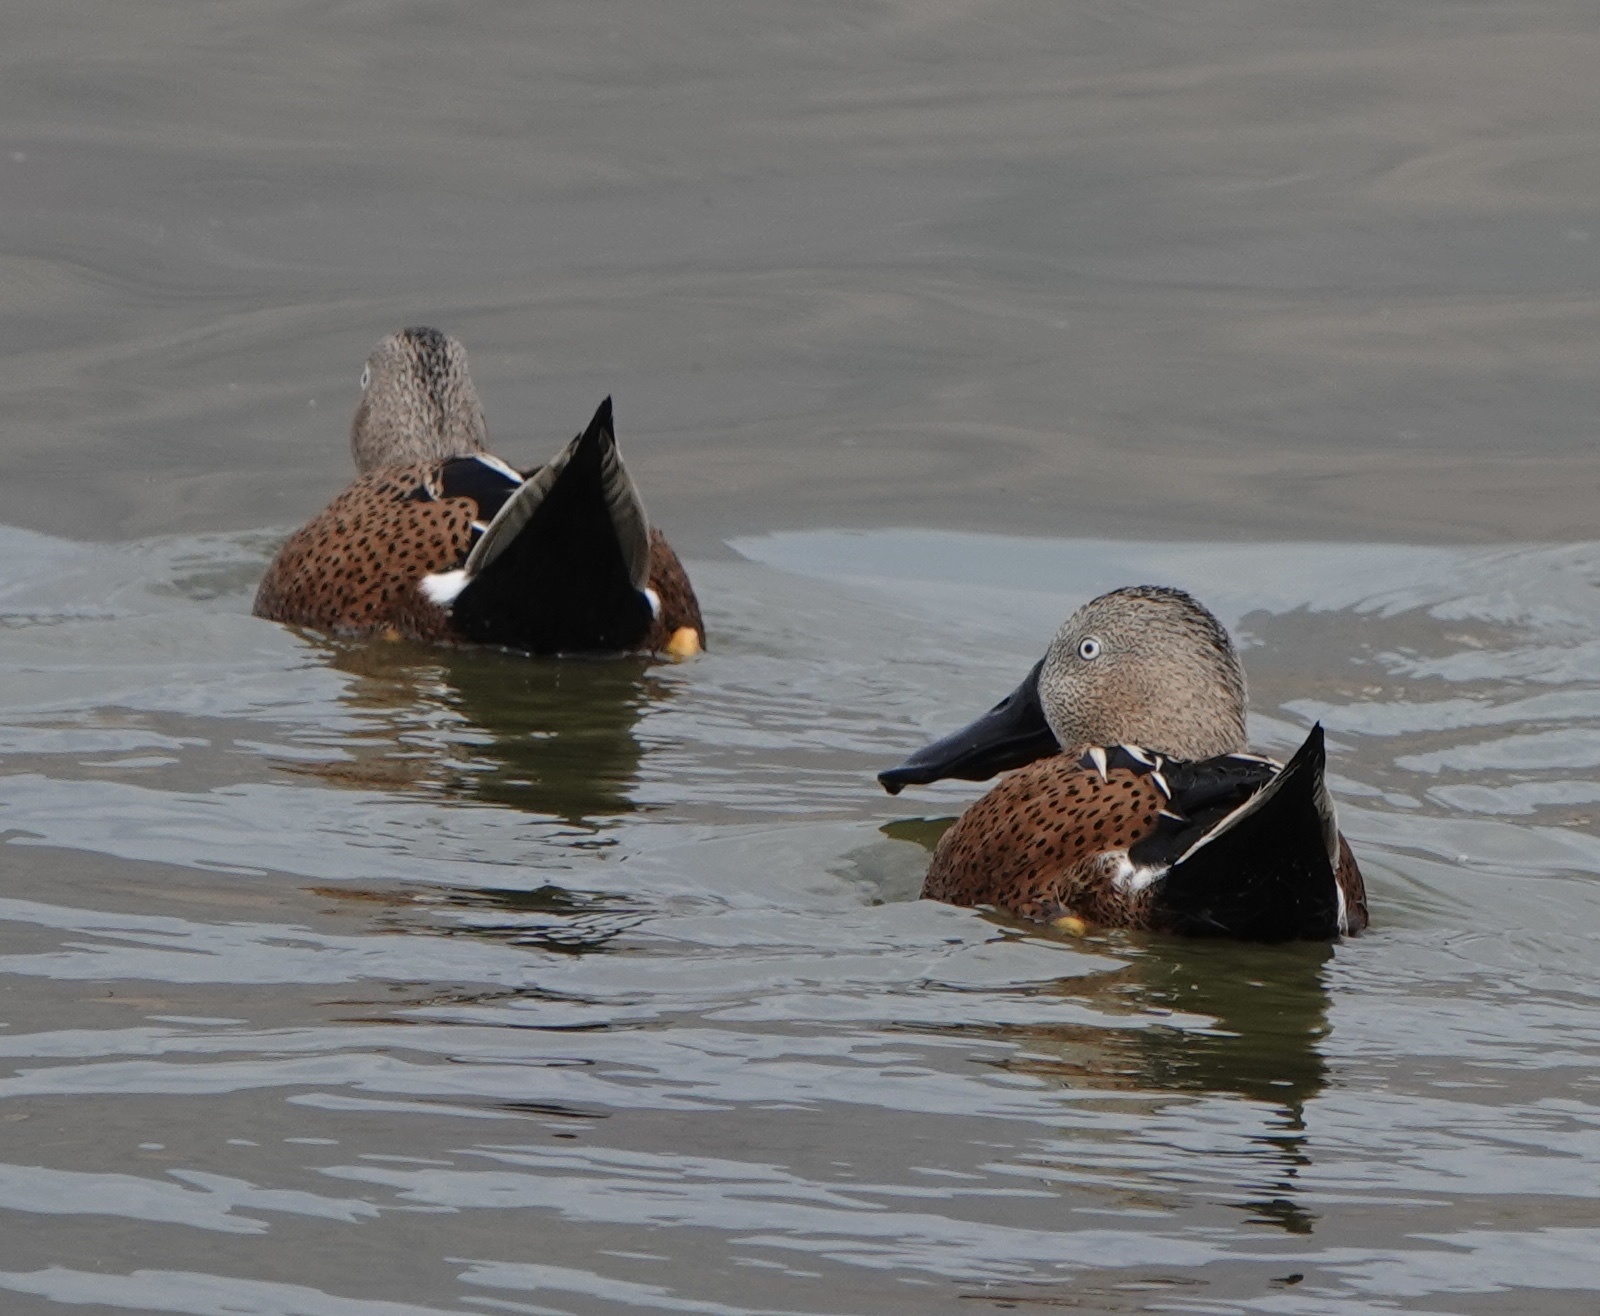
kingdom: Animalia
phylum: Chordata
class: Aves
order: Anseriformes
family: Anatidae
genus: Spatula
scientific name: Spatula platalea
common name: Red shoveler
